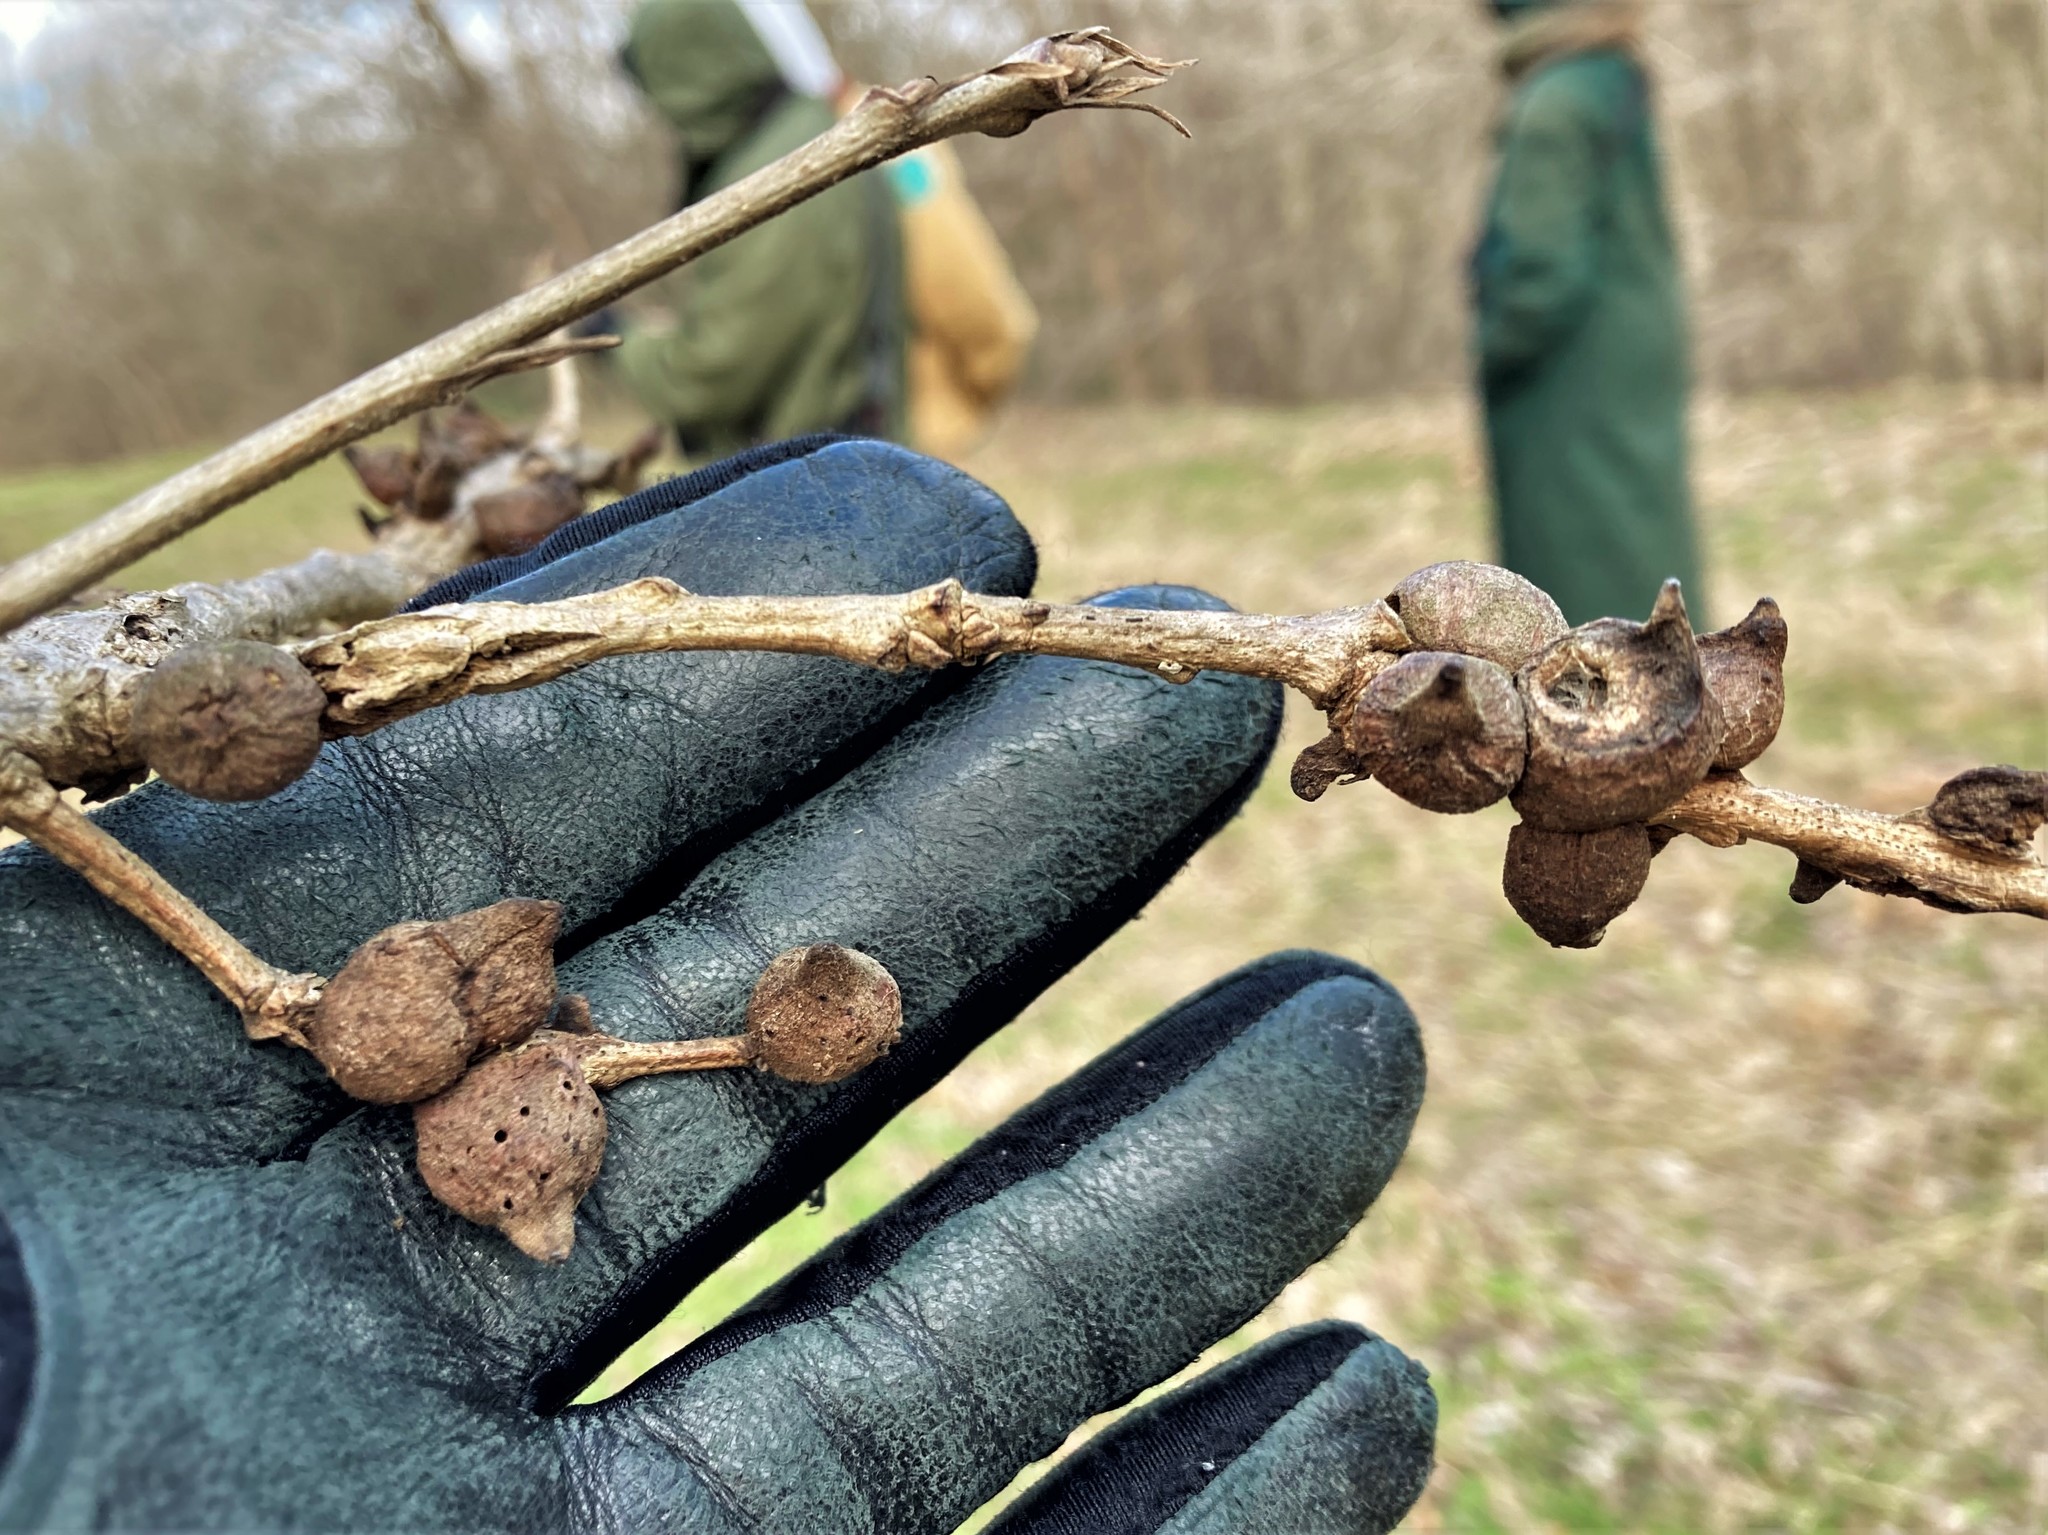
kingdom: Animalia
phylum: Arthropoda
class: Insecta
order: Hymenoptera
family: Cynipidae
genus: Disholcaspis
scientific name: Disholcaspis
